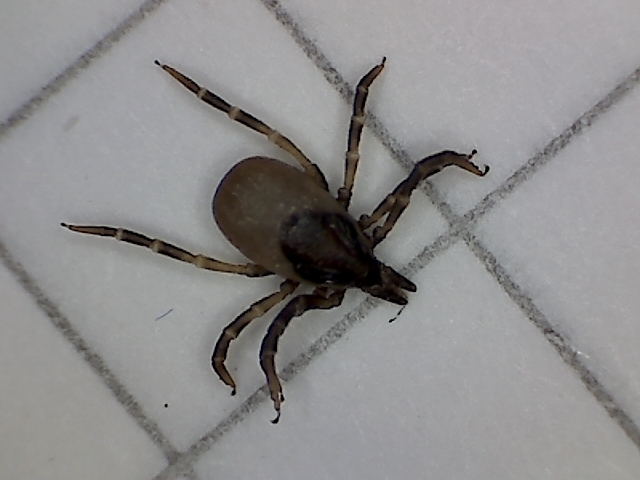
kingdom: Animalia
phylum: Arthropoda
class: Arachnida
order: Ixodida
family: Ixodidae
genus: Ixodes
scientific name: Ixodes frontalis
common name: Passerine tick
